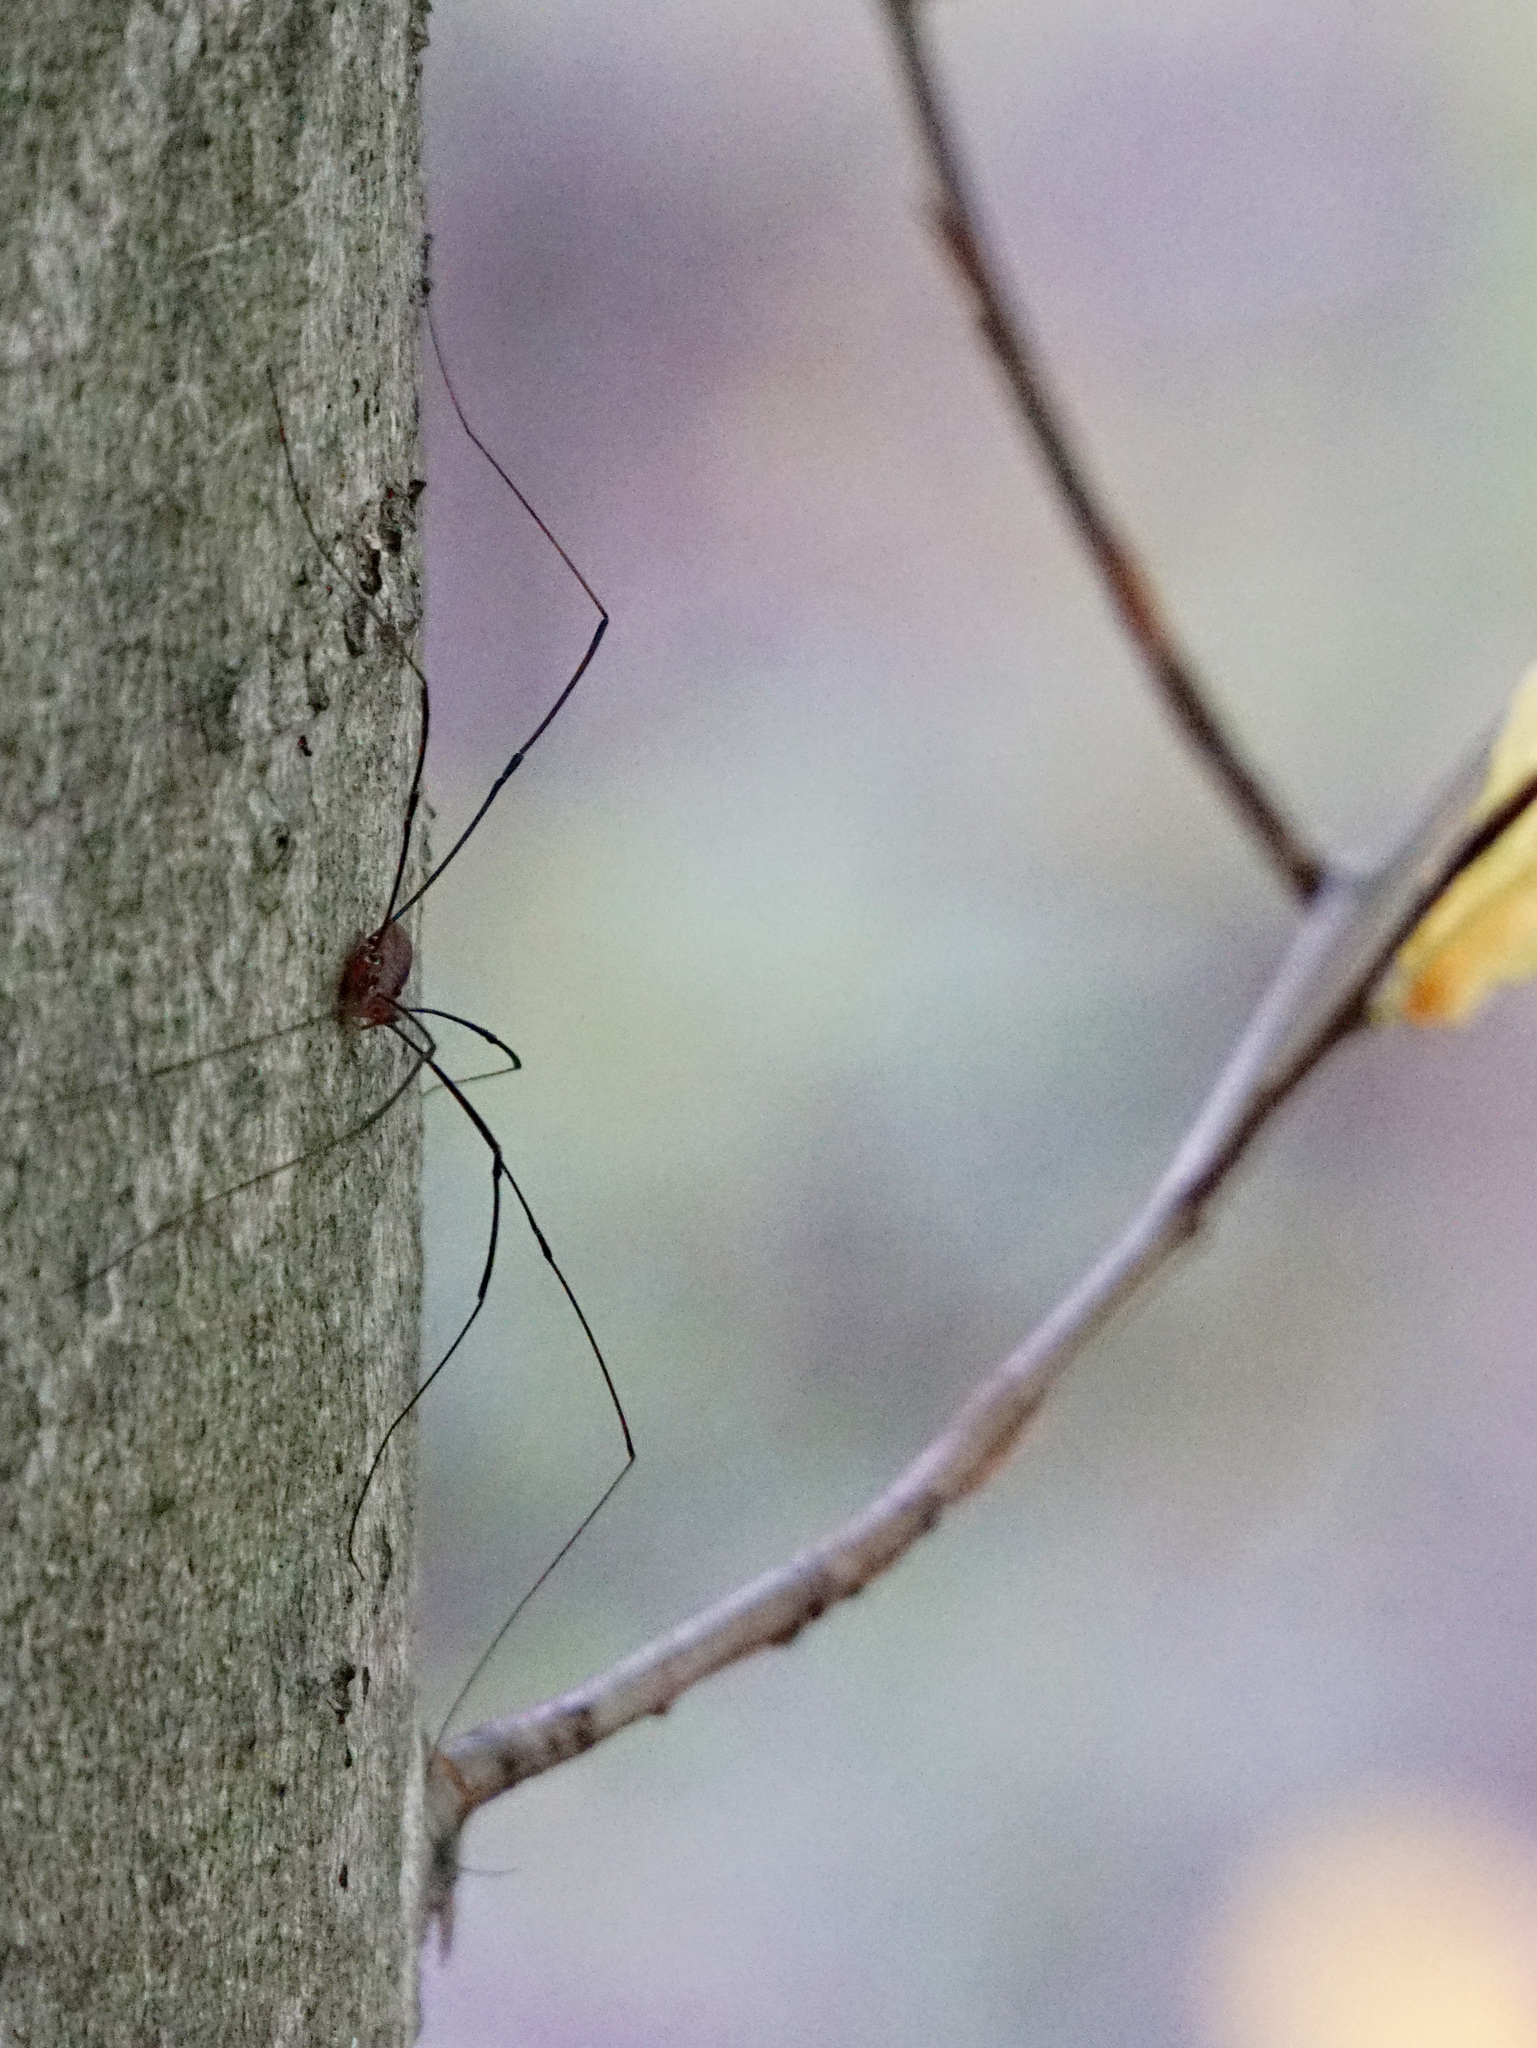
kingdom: Animalia
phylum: Arthropoda
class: Arachnida
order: Opiliones
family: Sclerosomatidae
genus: Leiobunum
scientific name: Leiobunum vittatum
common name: Eastern harvestman
